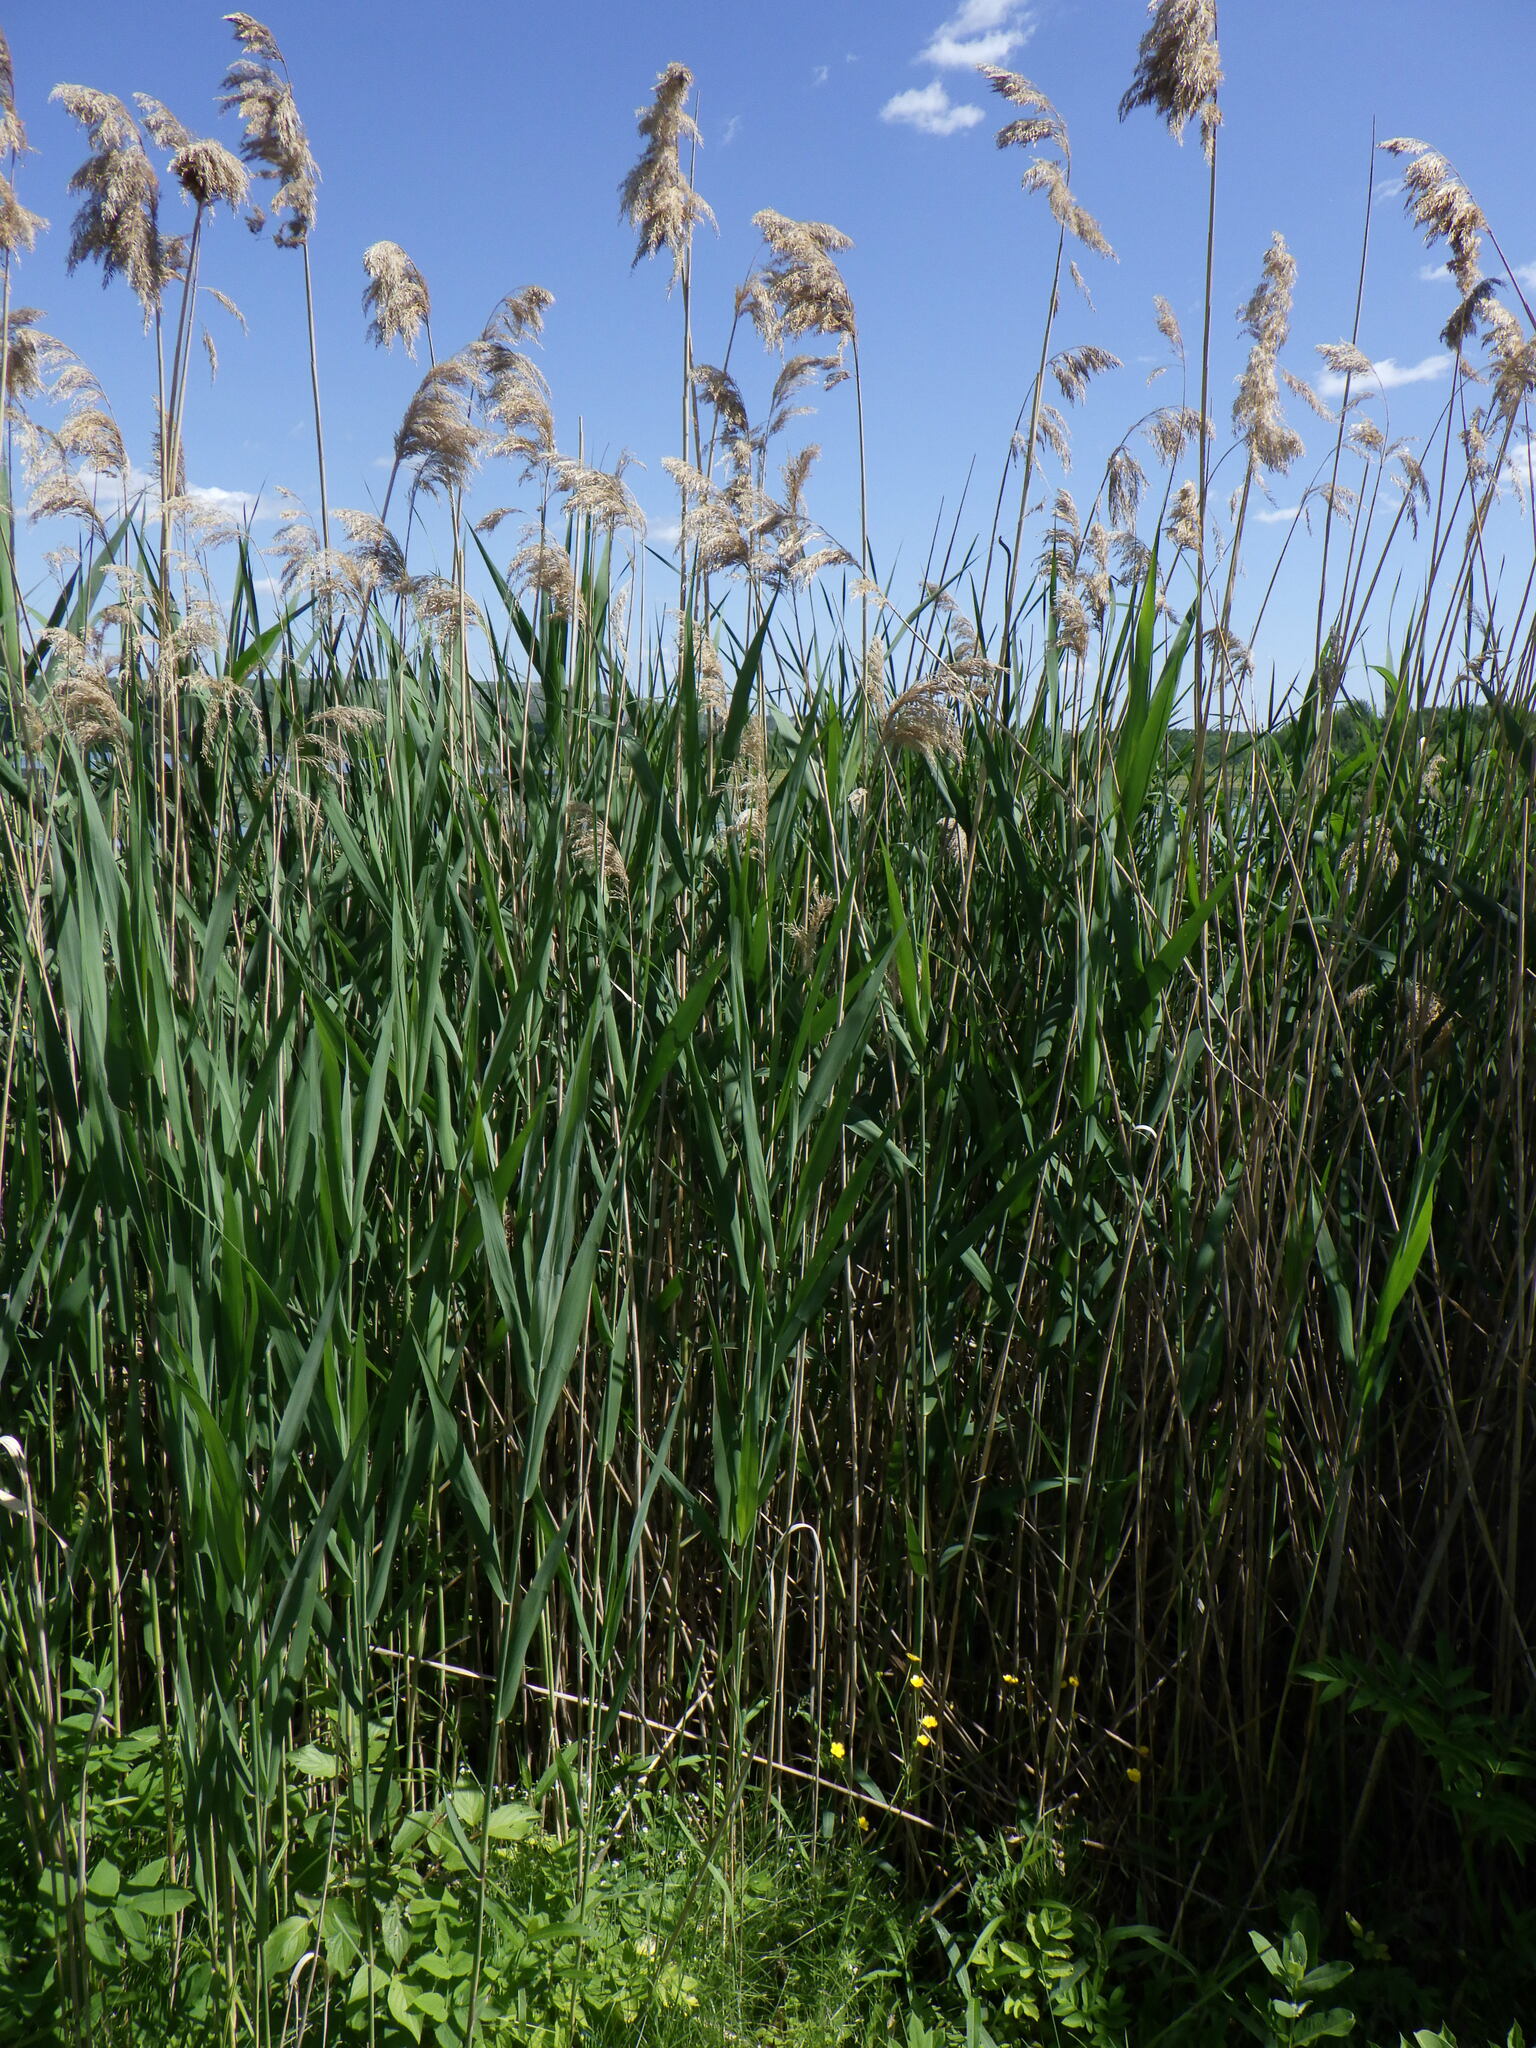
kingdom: Plantae
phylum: Tracheophyta
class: Liliopsida
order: Poales
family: Poaceae
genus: Phragmites
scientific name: Phragmites australis
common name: Common reed
